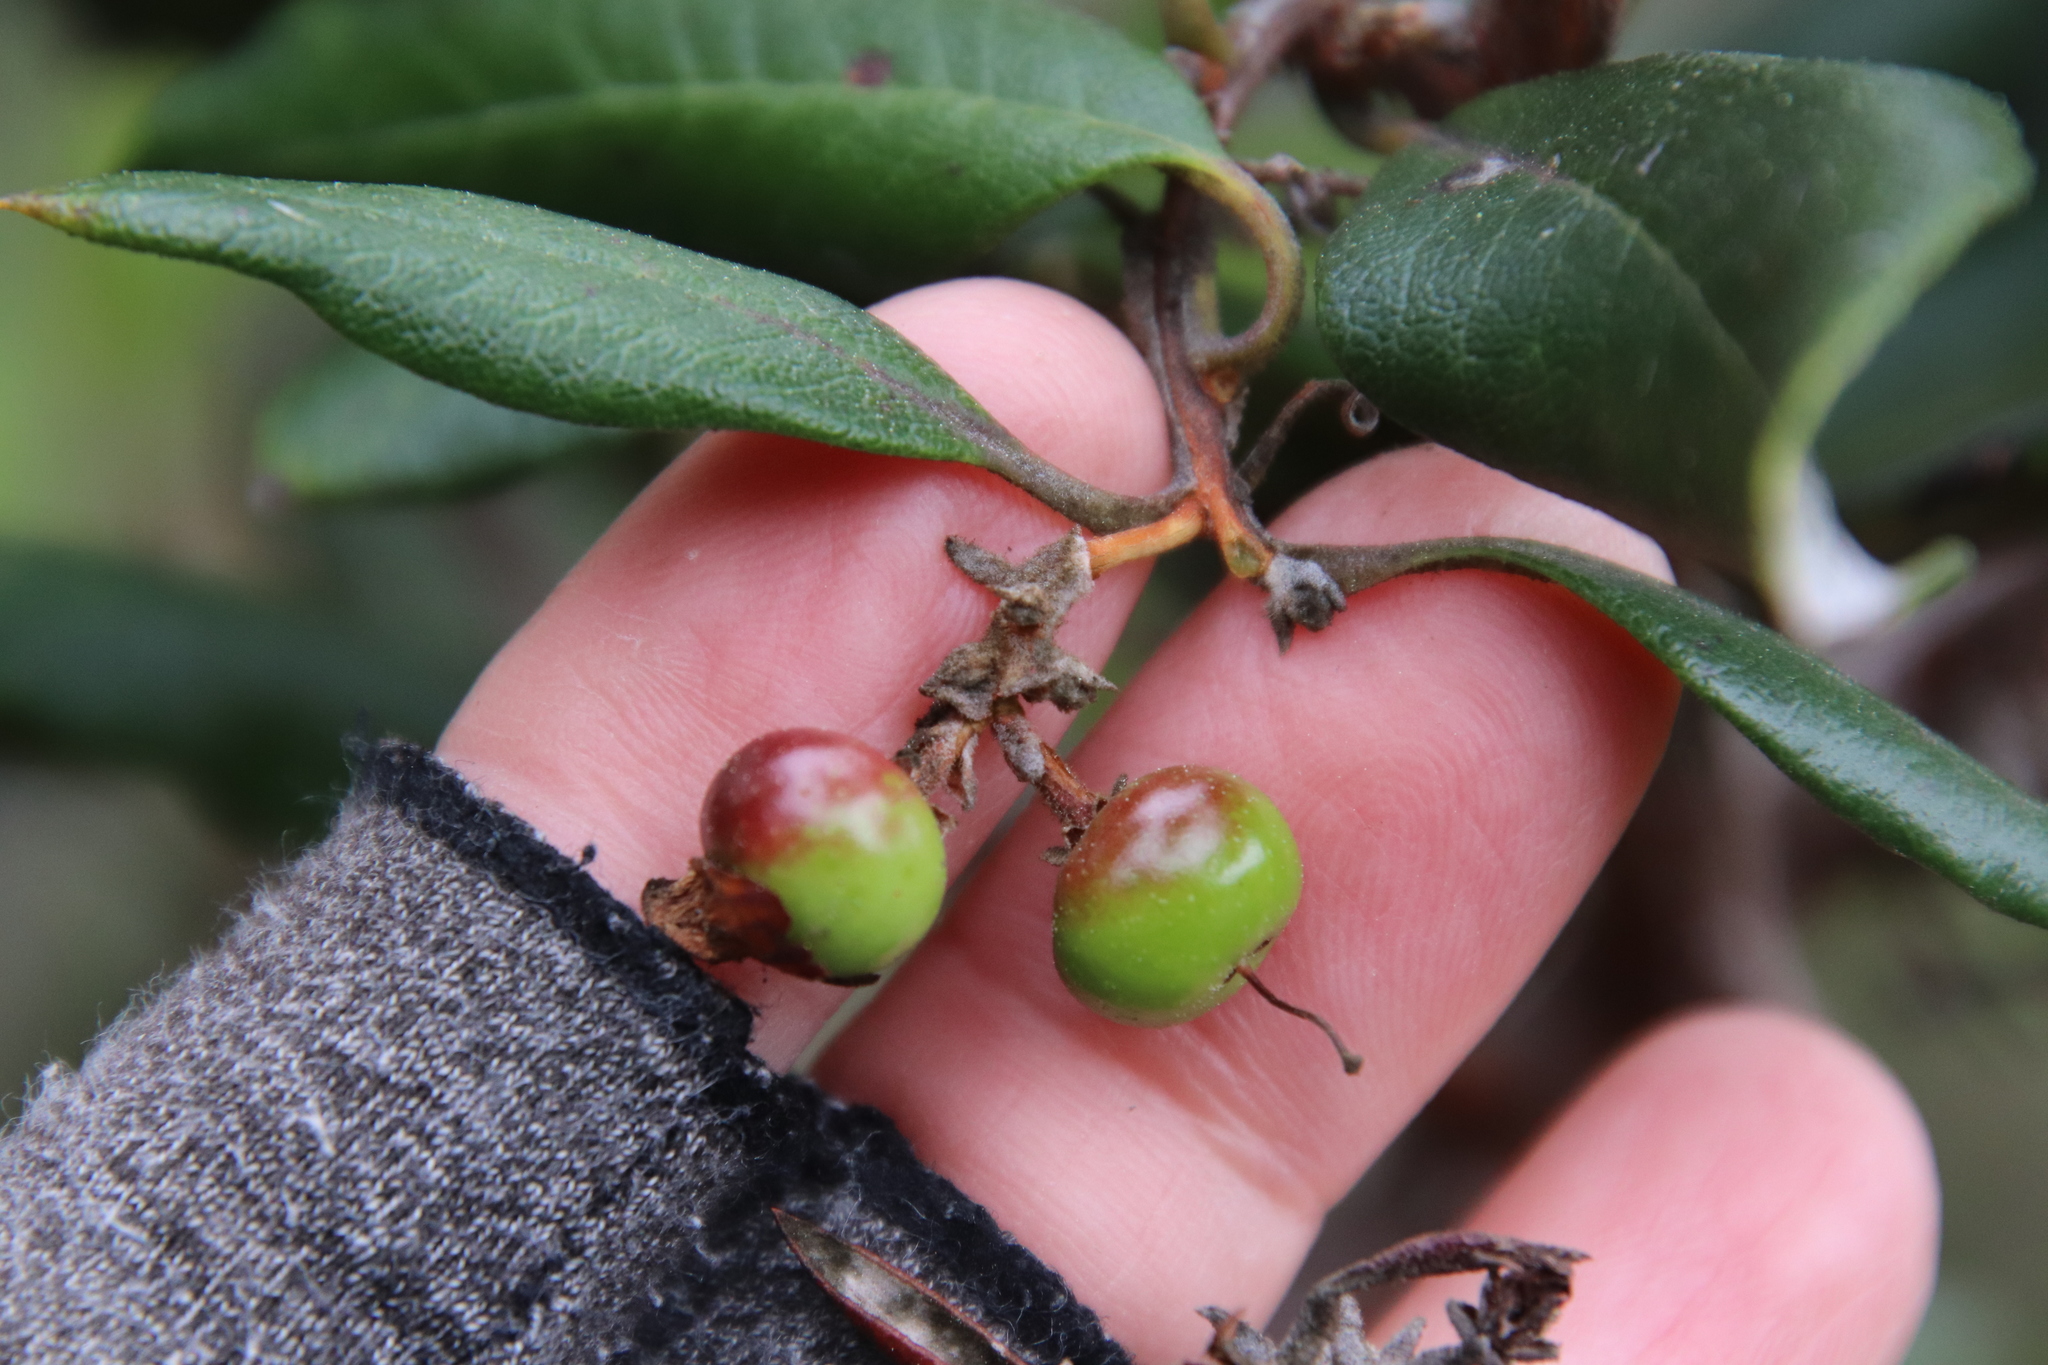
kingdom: Plantae
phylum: Tracheophyta
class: Magnoliopsida
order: Ericales
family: Ericaceae
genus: Arctostaphylos
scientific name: Arctostaphylos bicolor
